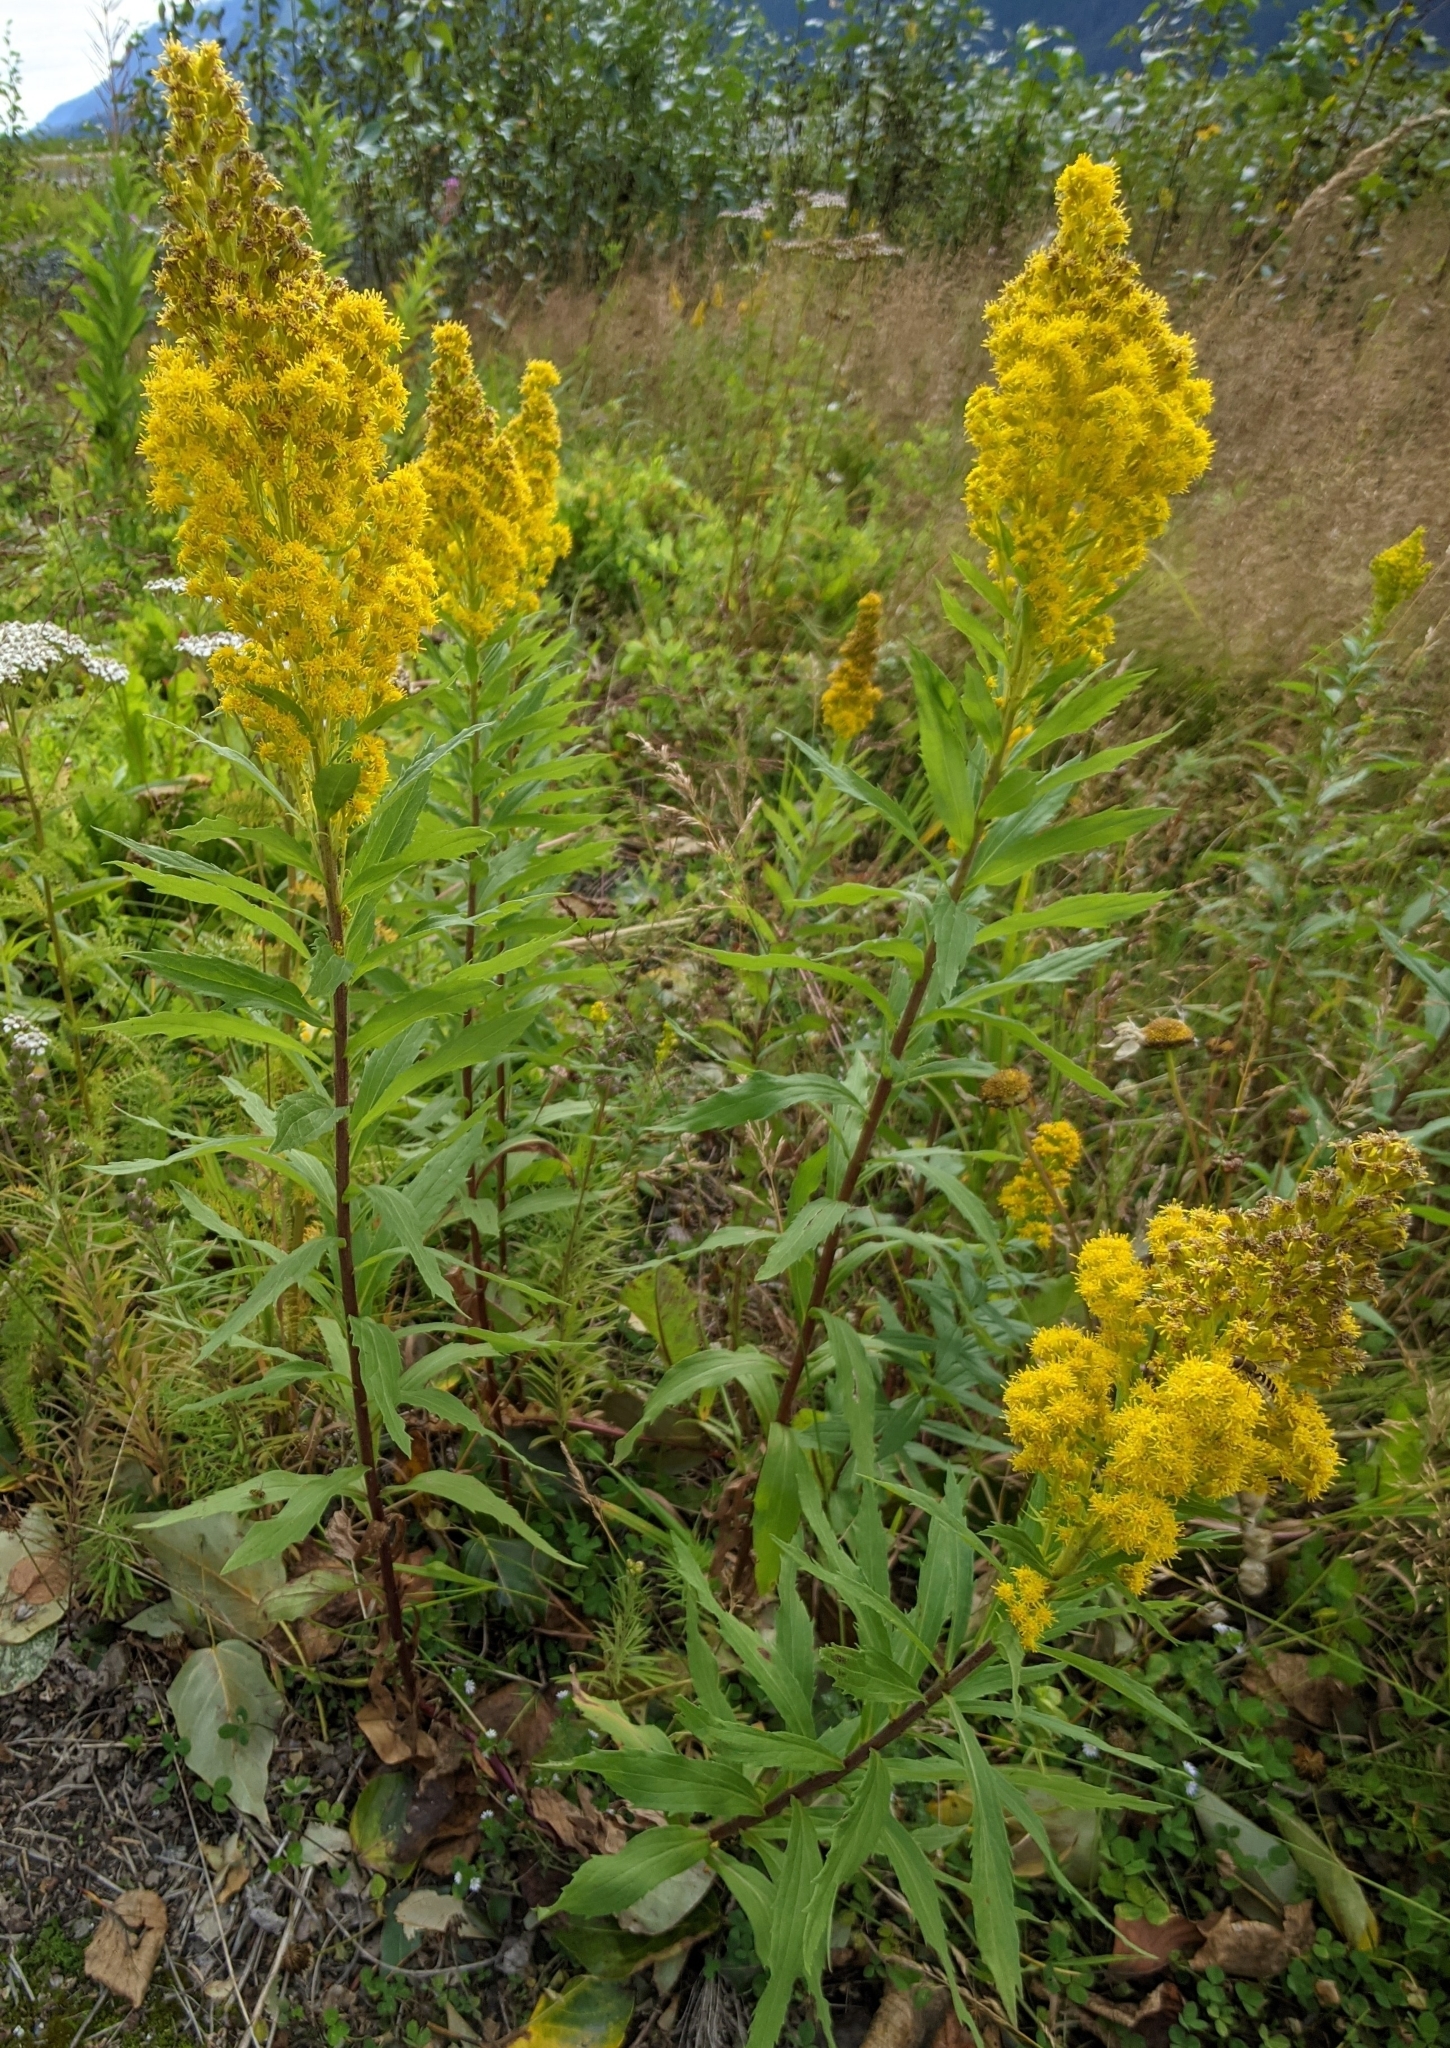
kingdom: Plantae
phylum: Tracheophyta
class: Magnoliopsida
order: Asterales
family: Asteraceae
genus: Solidago
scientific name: Solidago lepida
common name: Western canada goldenrod
